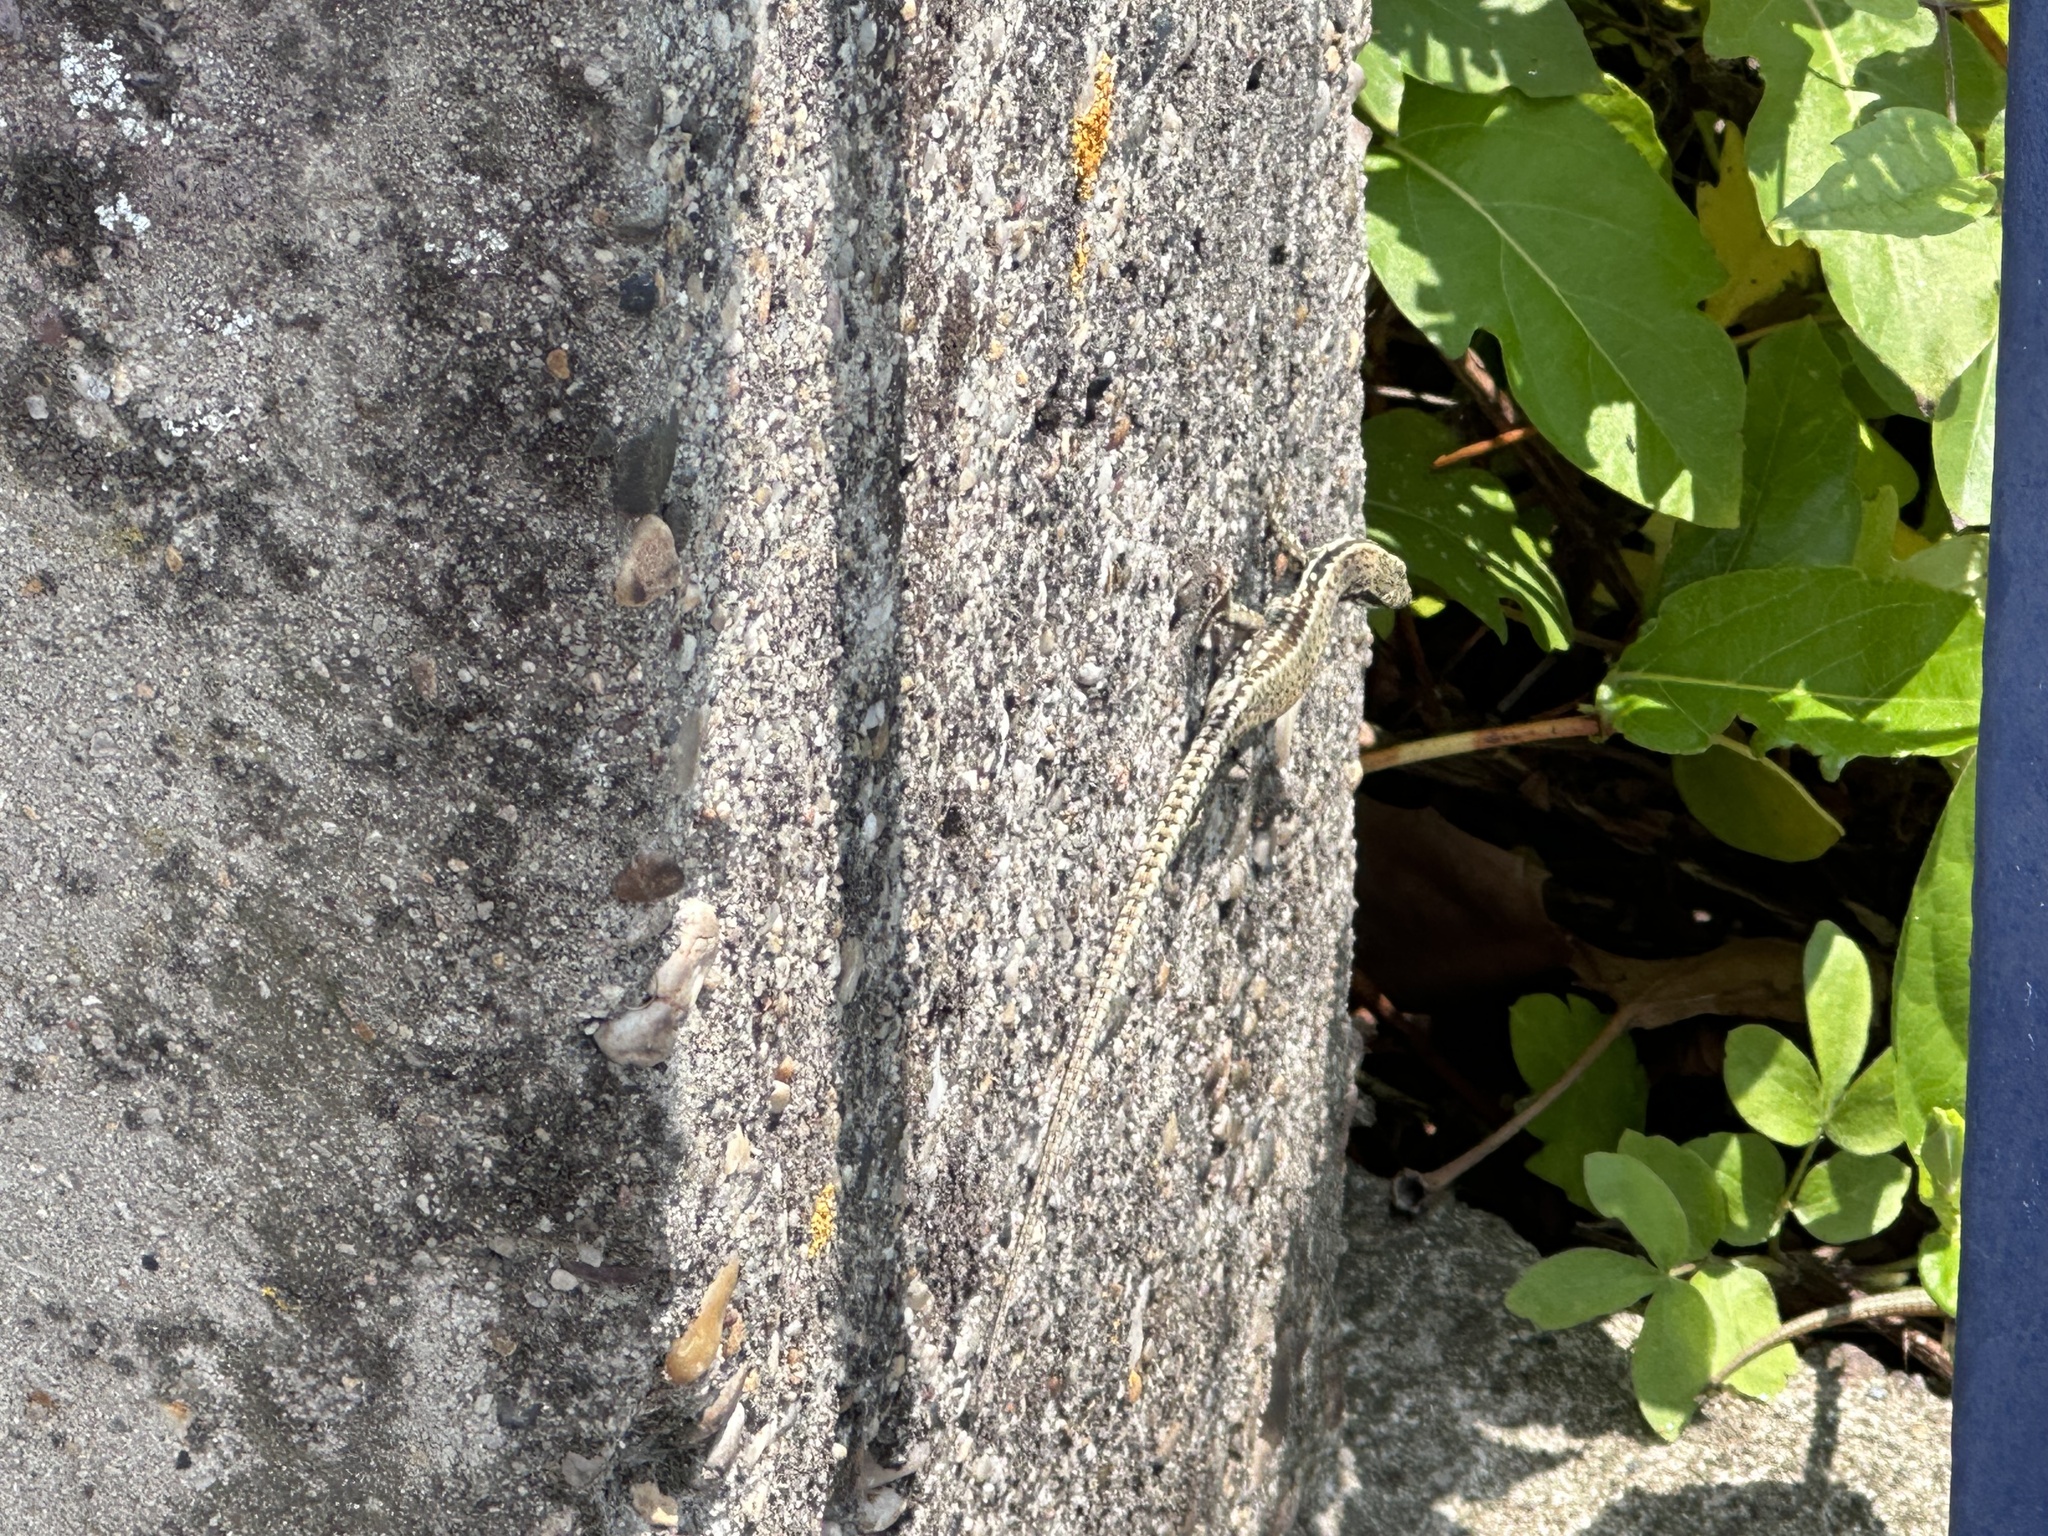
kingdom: Animalia
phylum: Chordata
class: Squamata
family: Lacertidae
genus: Podarcis
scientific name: Podarcis muralis
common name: Common wall lizard
